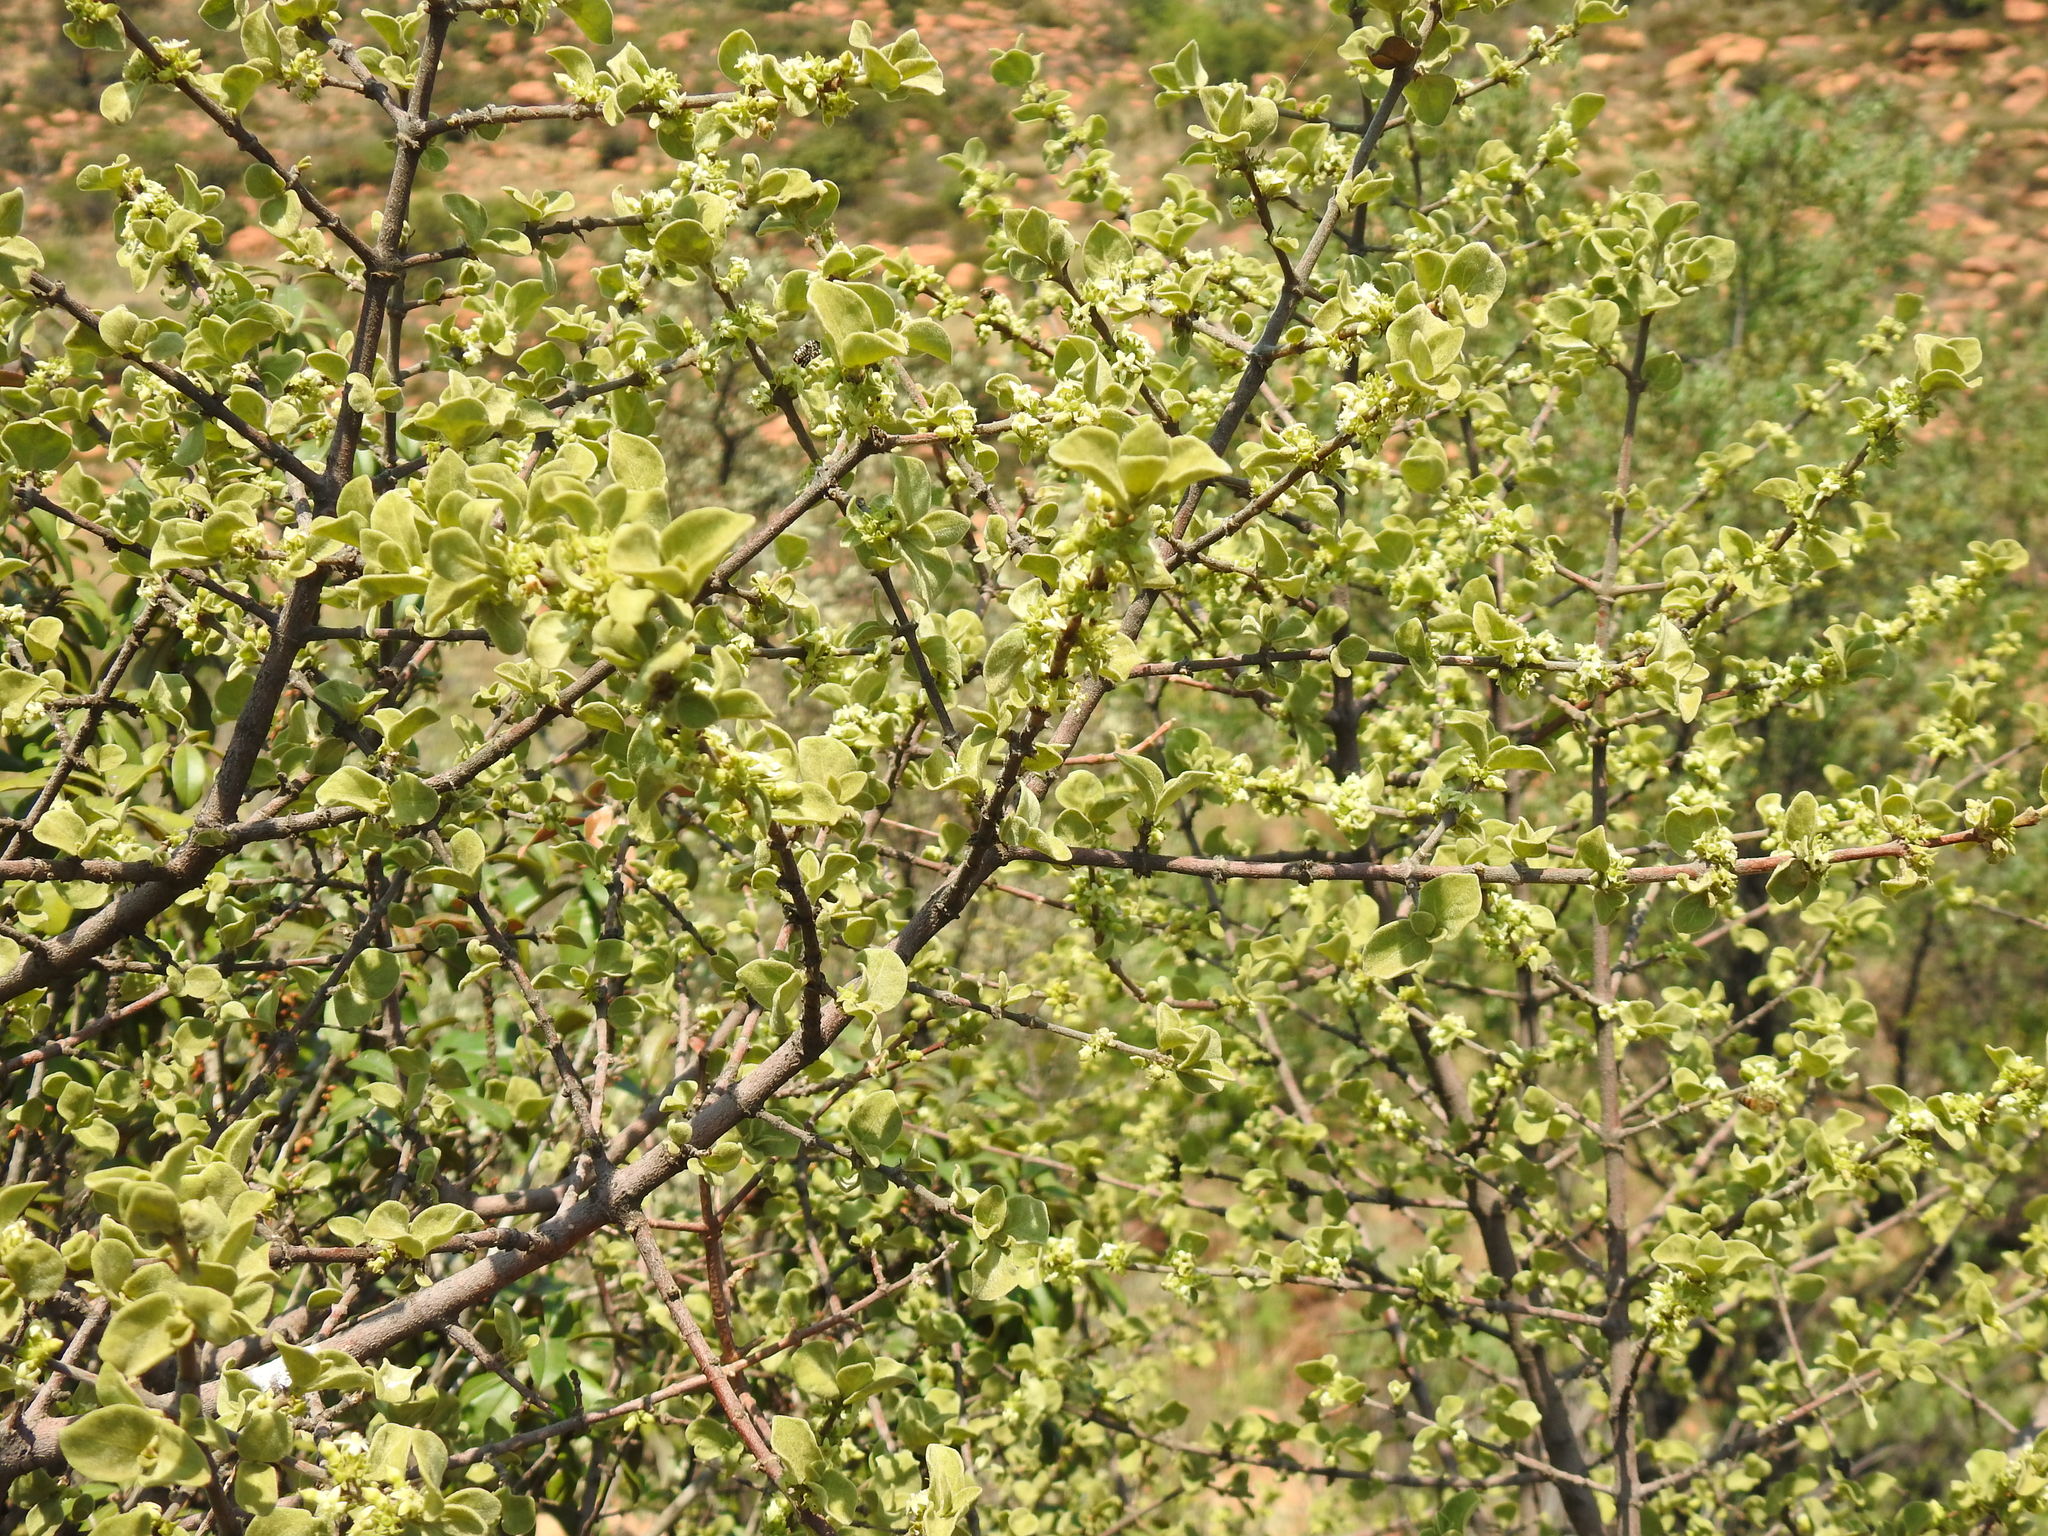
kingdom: Plantae
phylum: Tracheophyta
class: Magnoliopsida
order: Gentianales
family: Rubiaceae
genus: Vangueria
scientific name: Vangueria parvifolia
